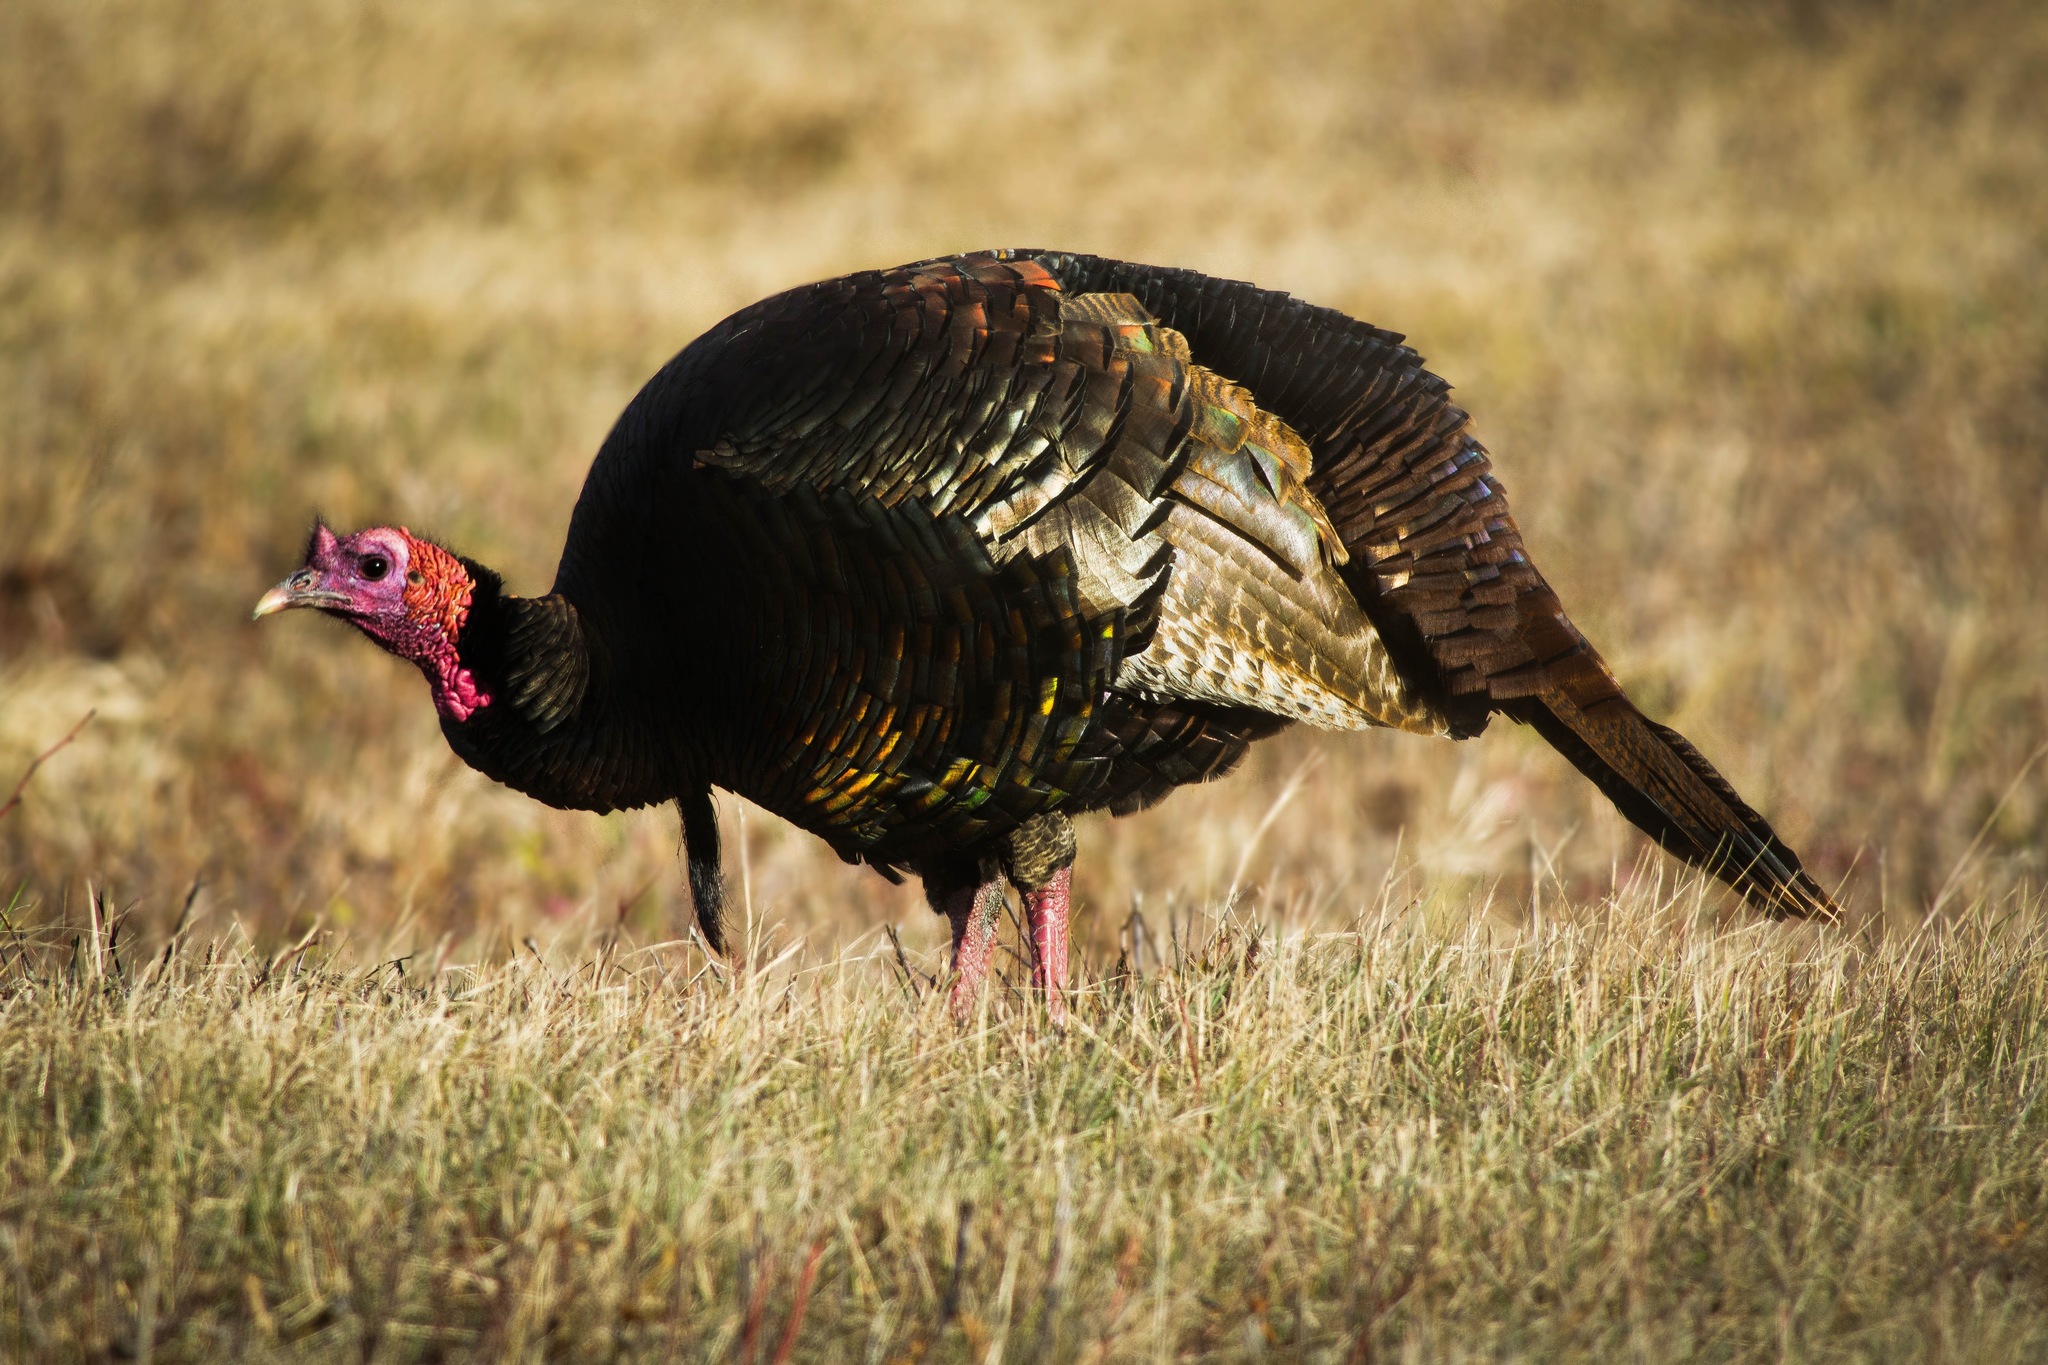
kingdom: Animalia
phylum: Chordata
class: Aves
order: Galliformes
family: Phasianidae
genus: Meleagris
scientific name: Meleagris gallopavo
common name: Wild turkey
